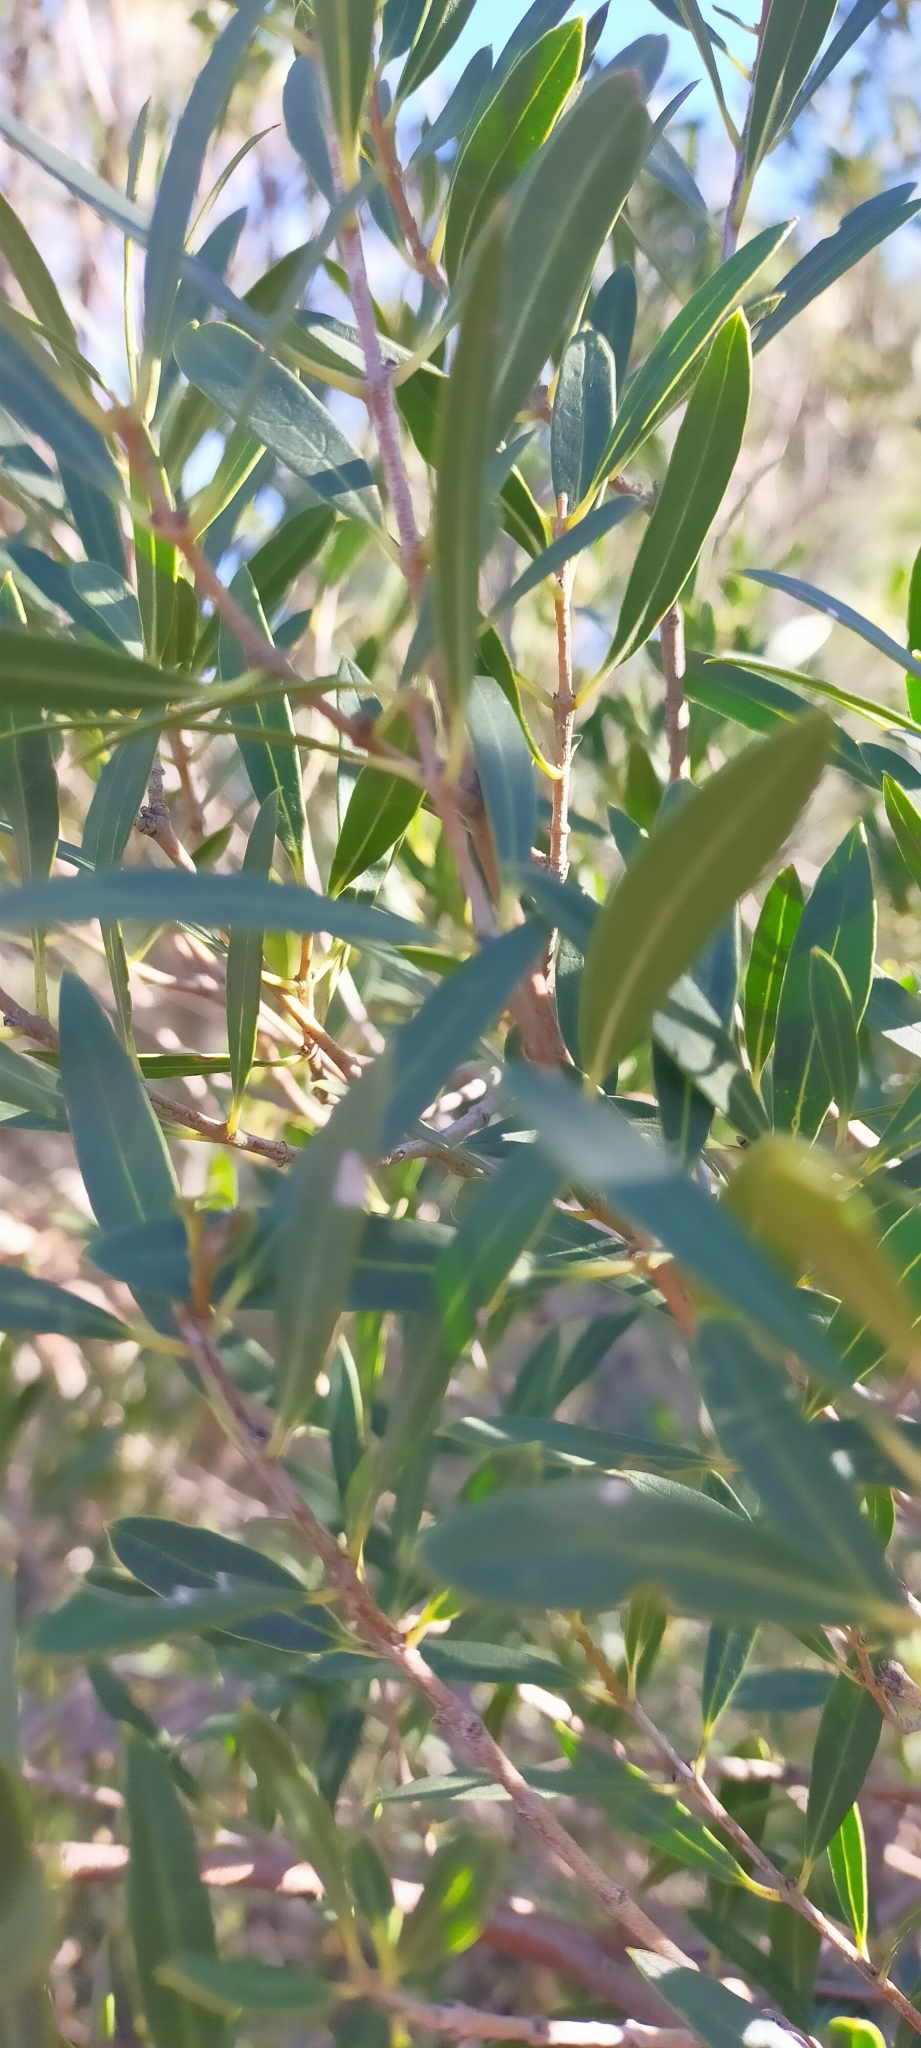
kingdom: Plantae
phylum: Tracheophyta
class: Magnoliopsida
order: Lamiales
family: Oleaceae
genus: Phillyrea
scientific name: Phillyrea angustifolia
